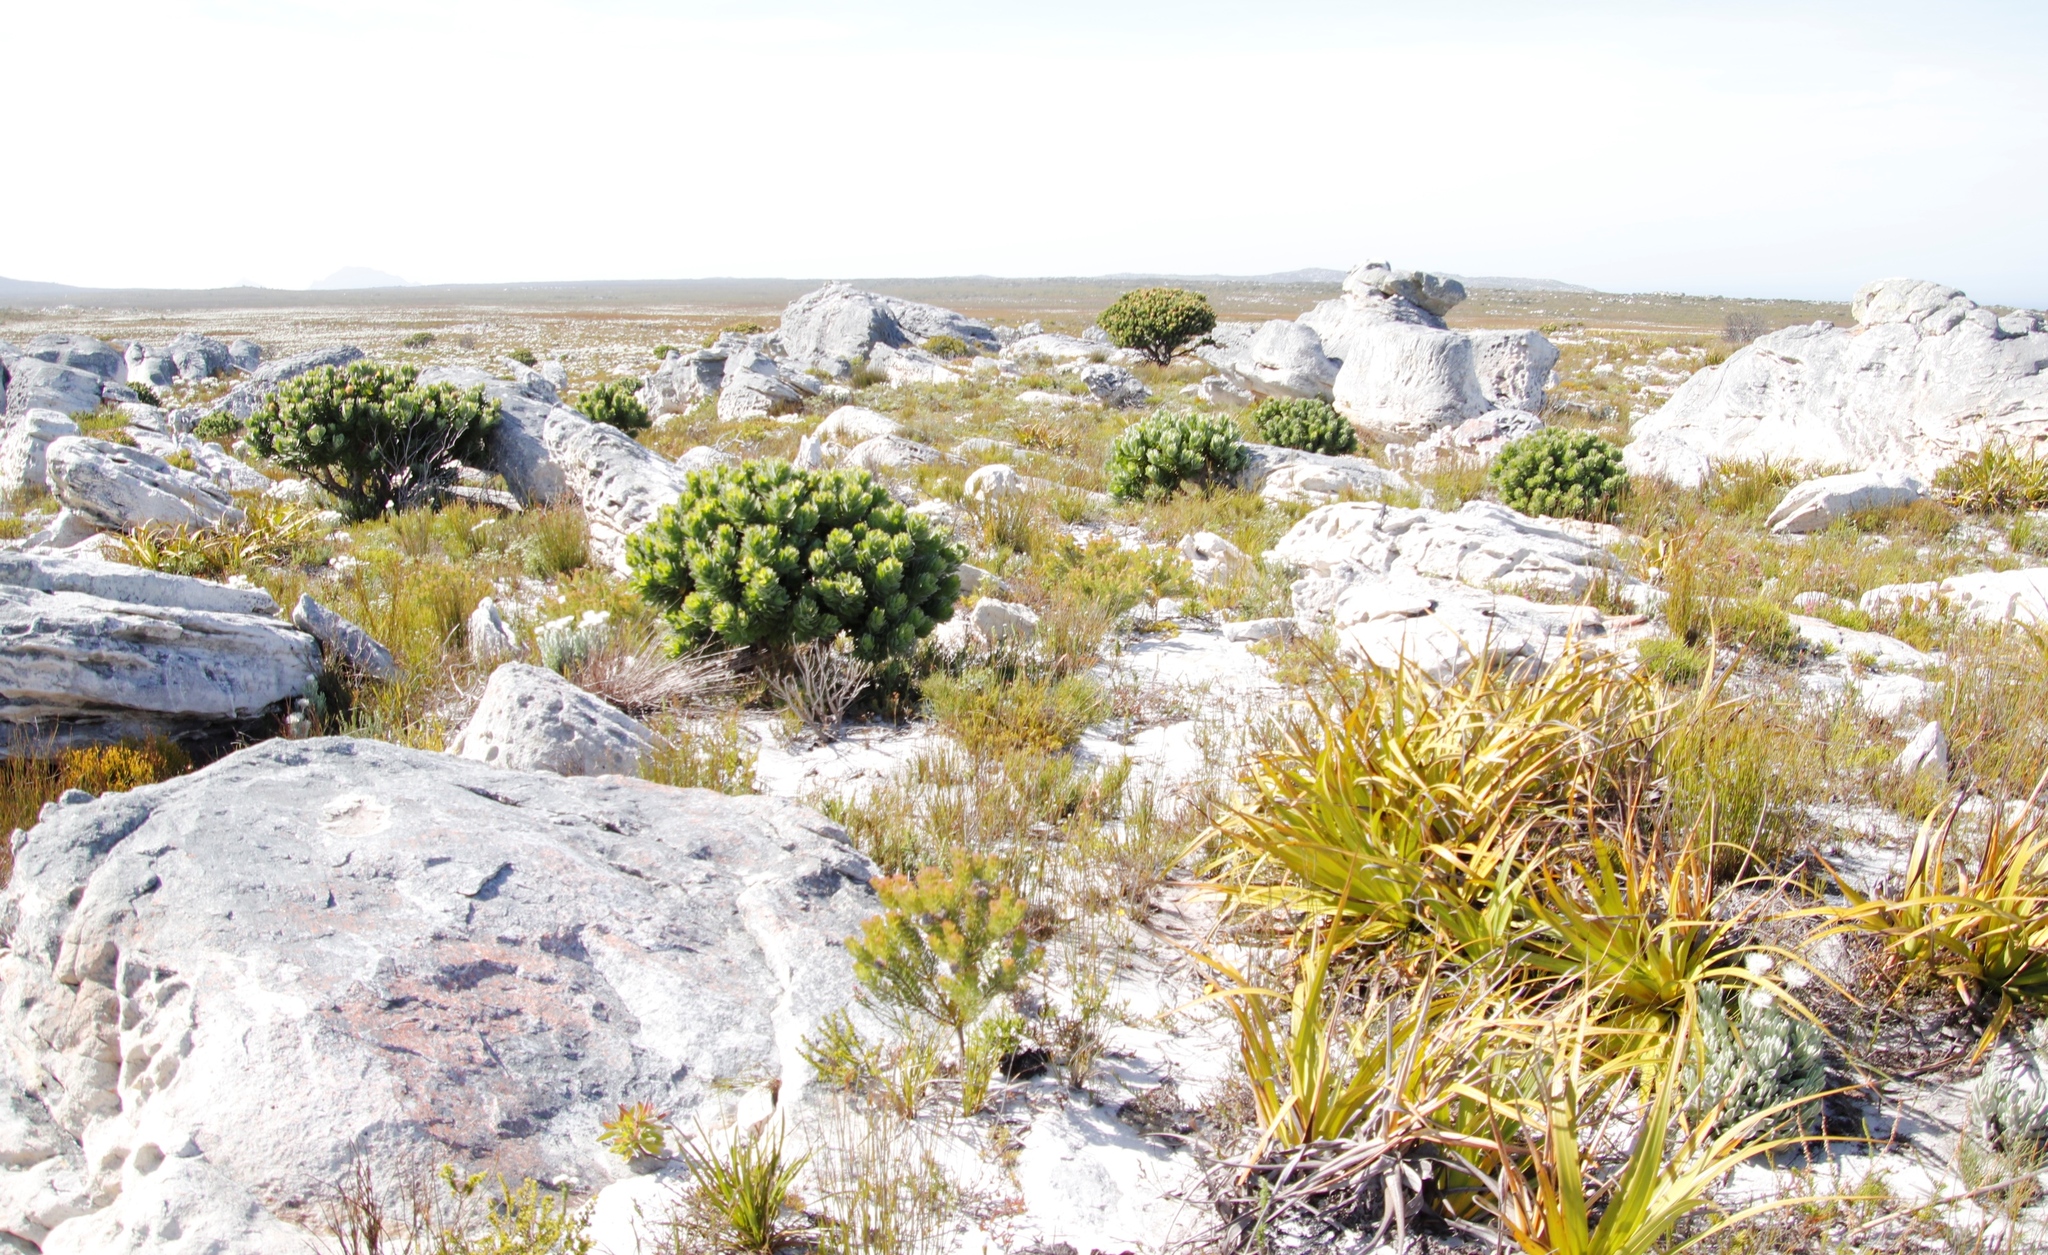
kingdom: Plantae
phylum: Tracheophyta
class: Magnoliopsida
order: Proteales
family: Proteaceae
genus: Leucospermum
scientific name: Leucospermum conocarpodendron
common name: Tree pincushion
